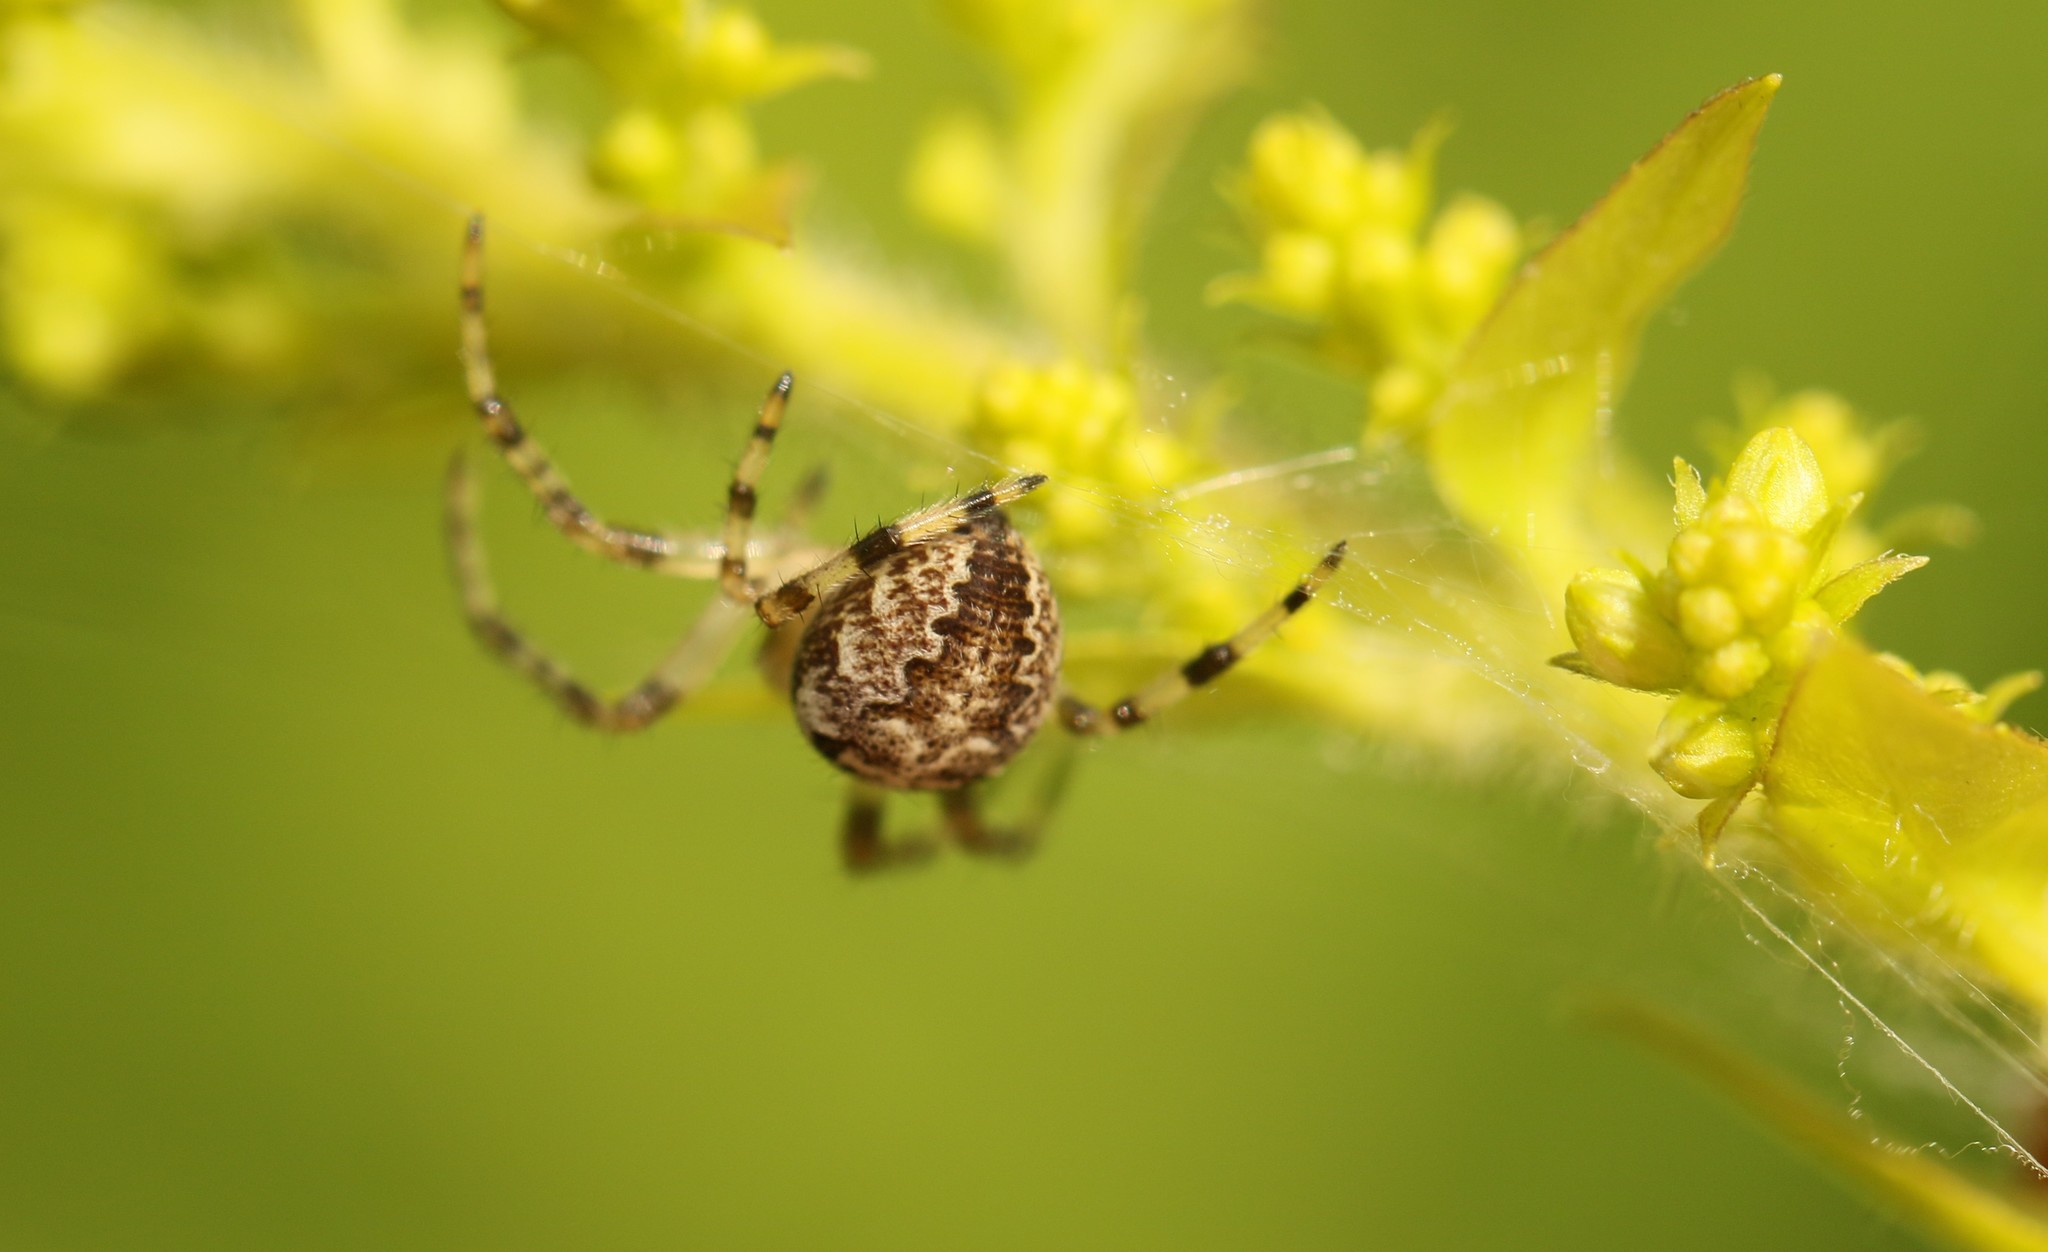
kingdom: Animalia
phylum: Arthropoda
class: Arachnida
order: Araneae
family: Araneidae
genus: Araneus
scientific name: Araneus diadematus
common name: Cross orbweaver
